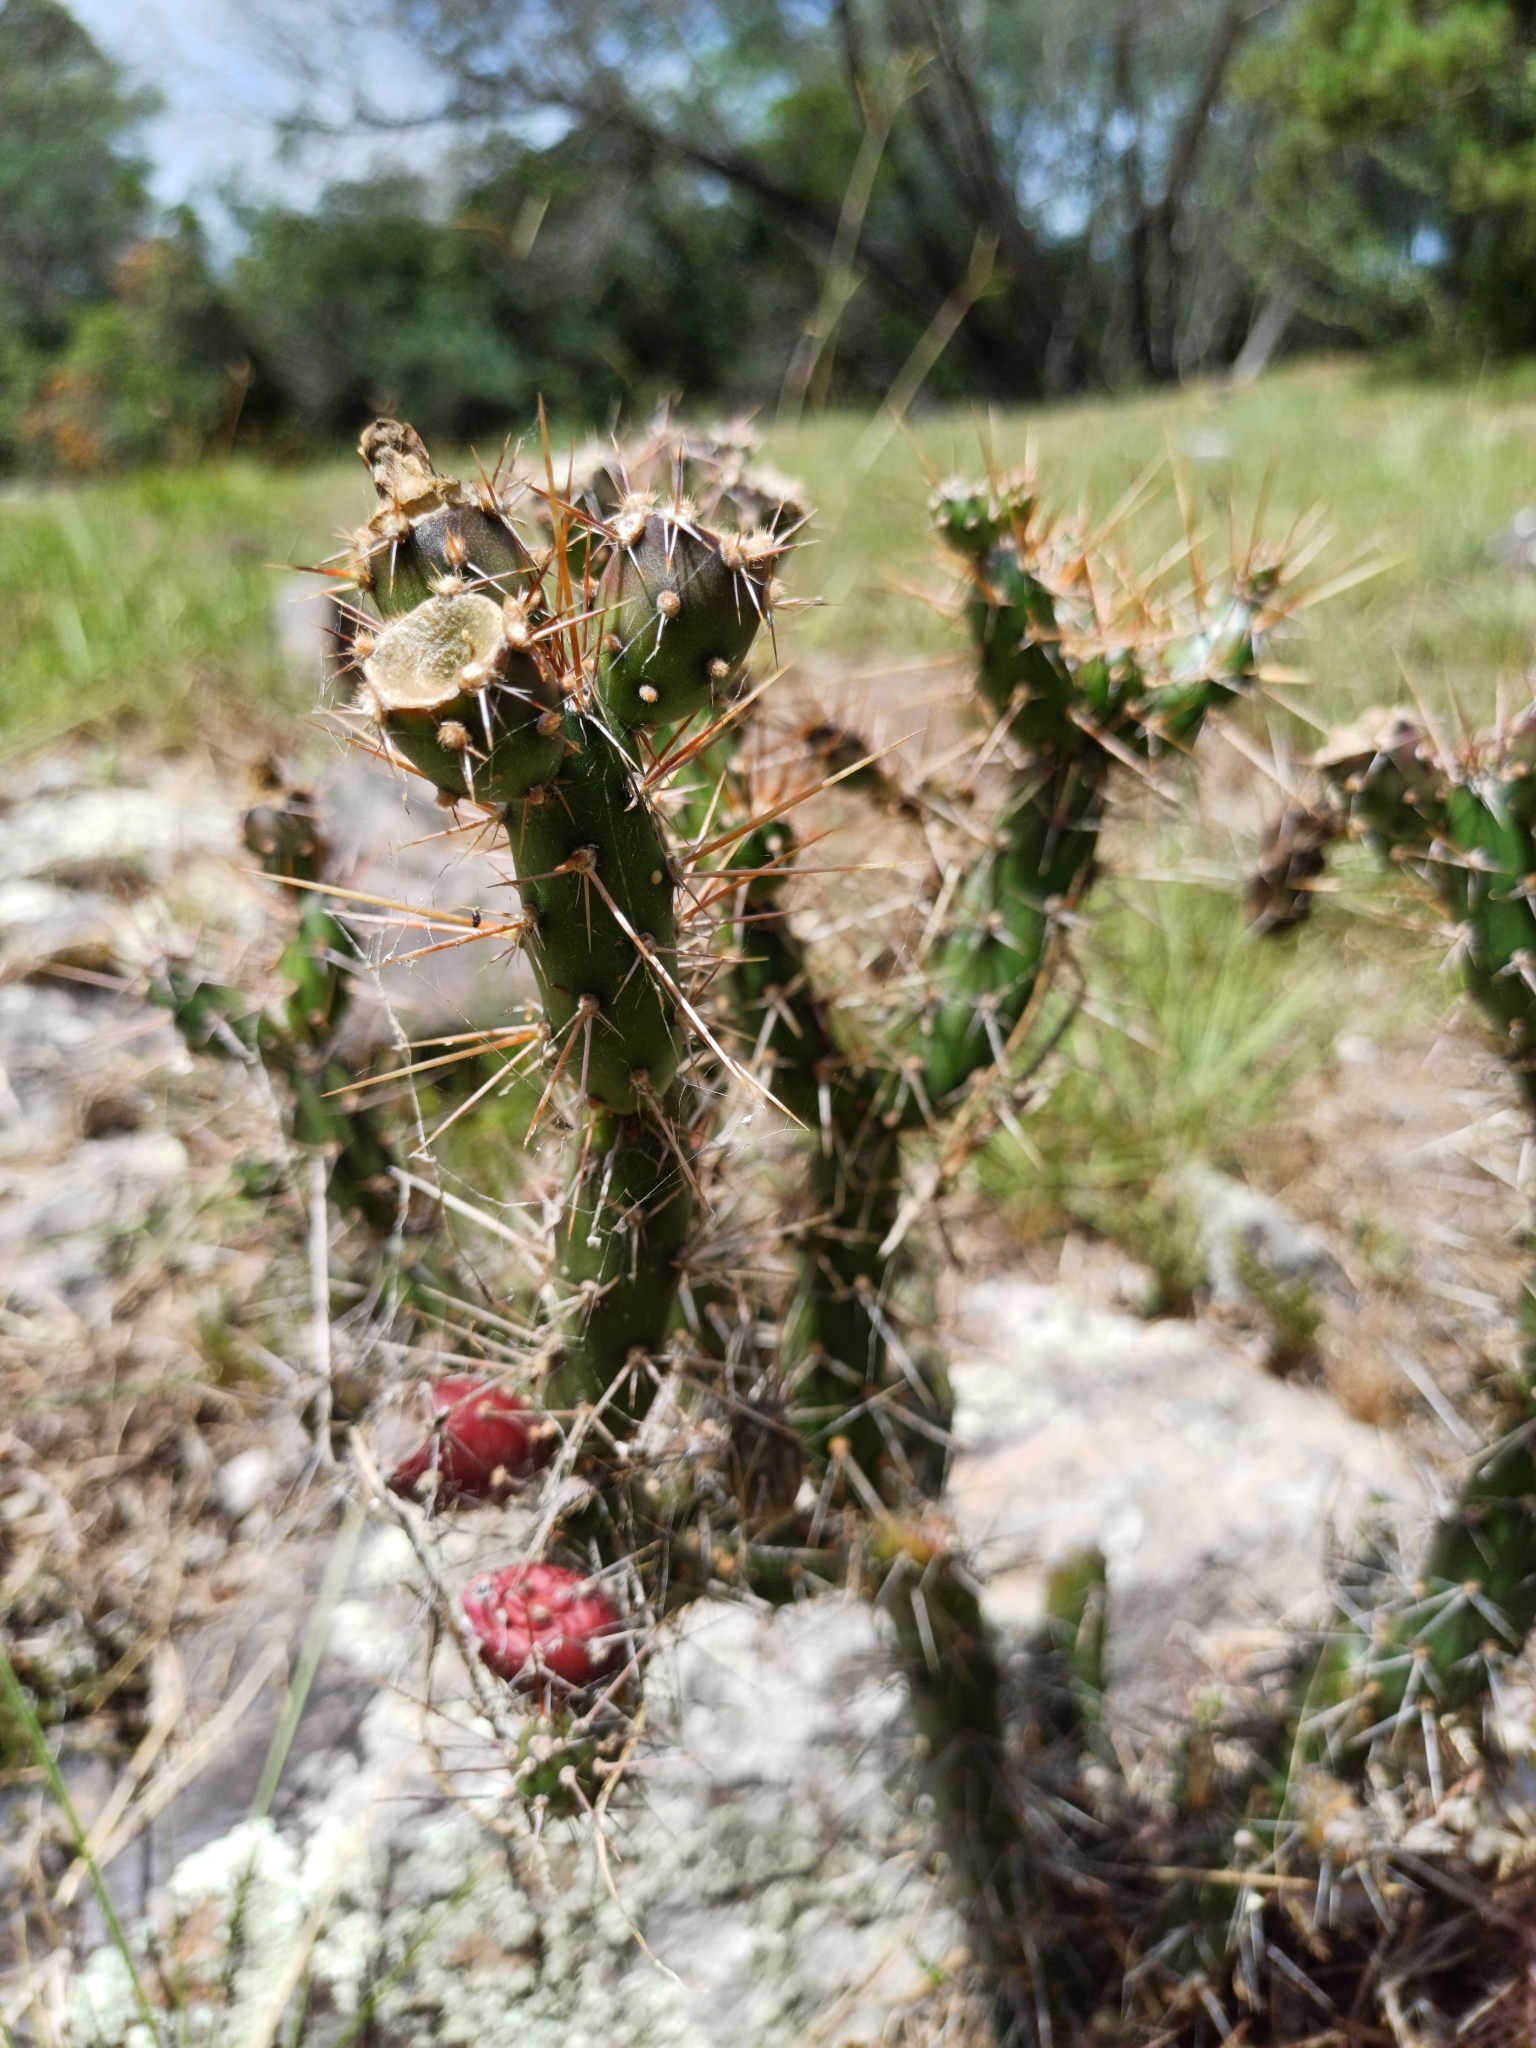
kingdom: Plantae
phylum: Tracheophyta
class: Magnoliopsida
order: Caryophyllales
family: Cactaceae
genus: Opuntia
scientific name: Opuntia aurantiaca
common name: Jointed pricklypear
